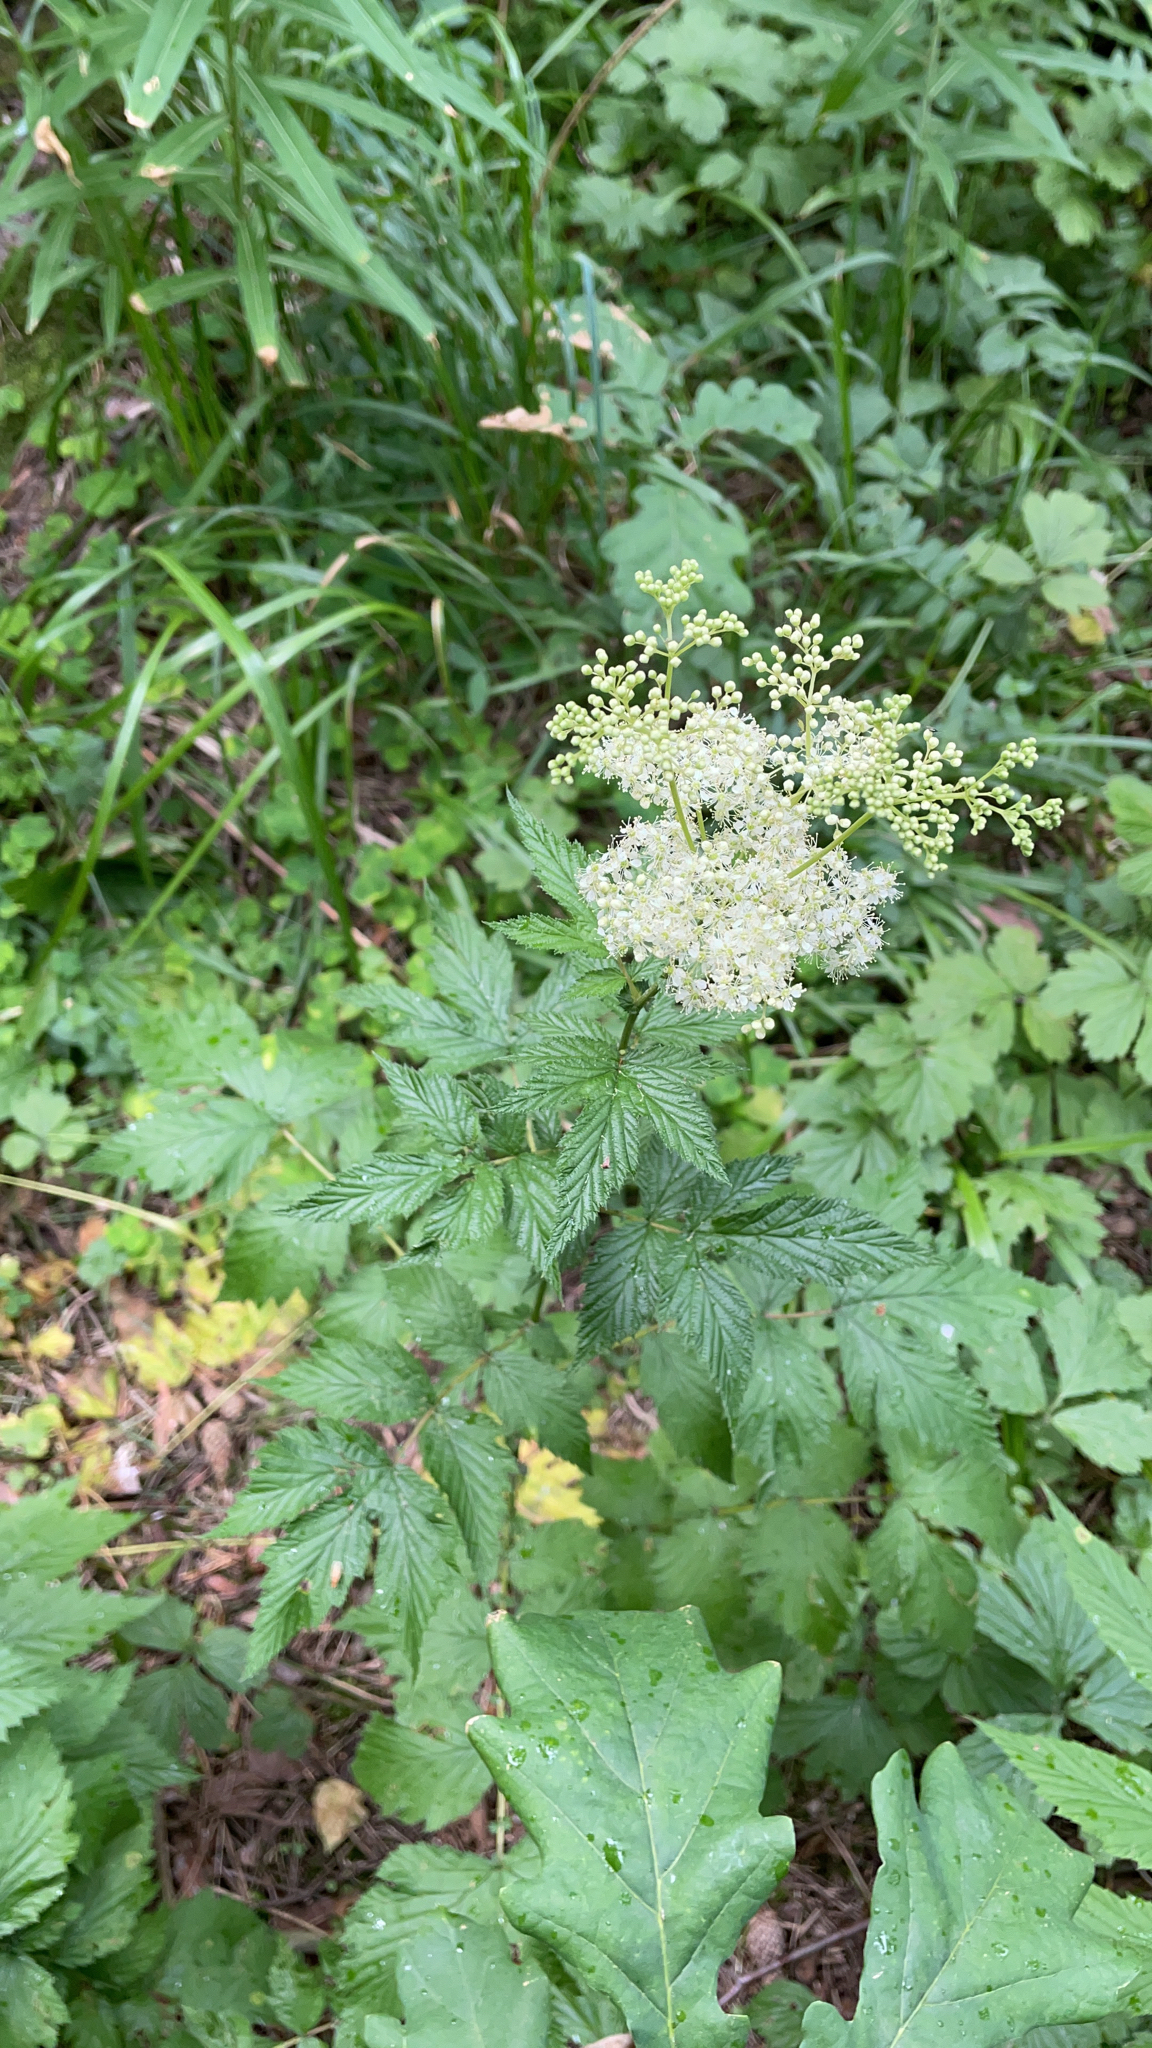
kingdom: Plantae
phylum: Tracheophyta
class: Magnoliopsida
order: Rosales
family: Rosaceae
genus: Filipendula
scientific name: Filipendula ulmaria
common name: Meadowsweet
